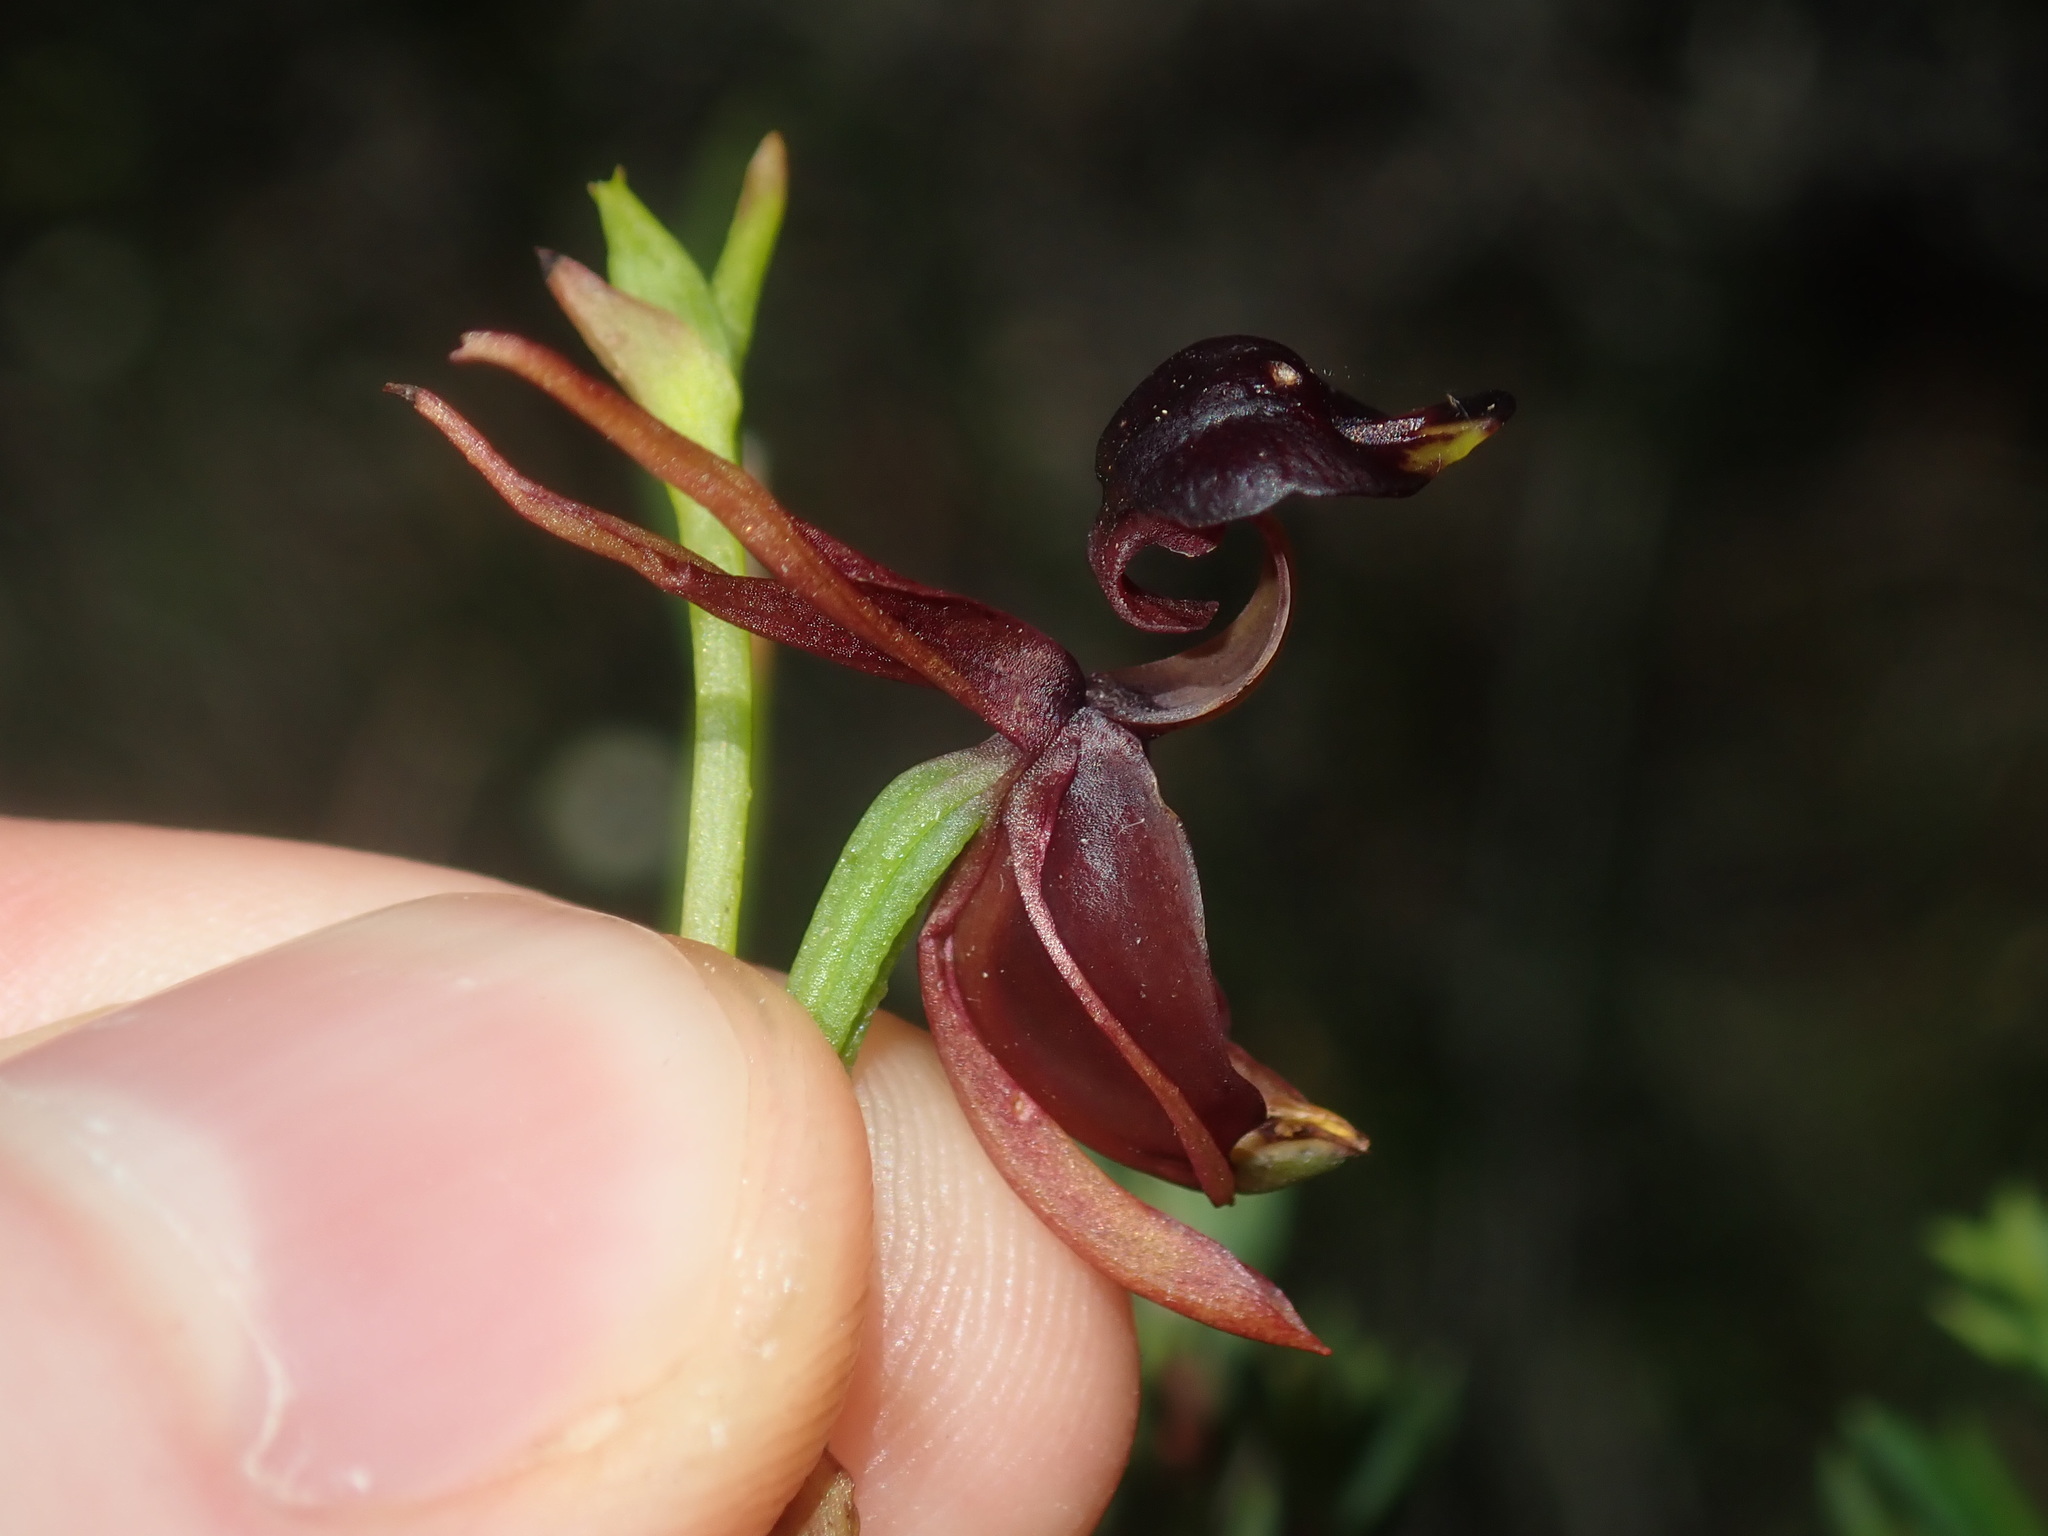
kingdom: Plantae
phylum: Tracheophyta
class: Liliopsida
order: Asparagales
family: Orchidaceae
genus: Caleana
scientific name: Caleana major
